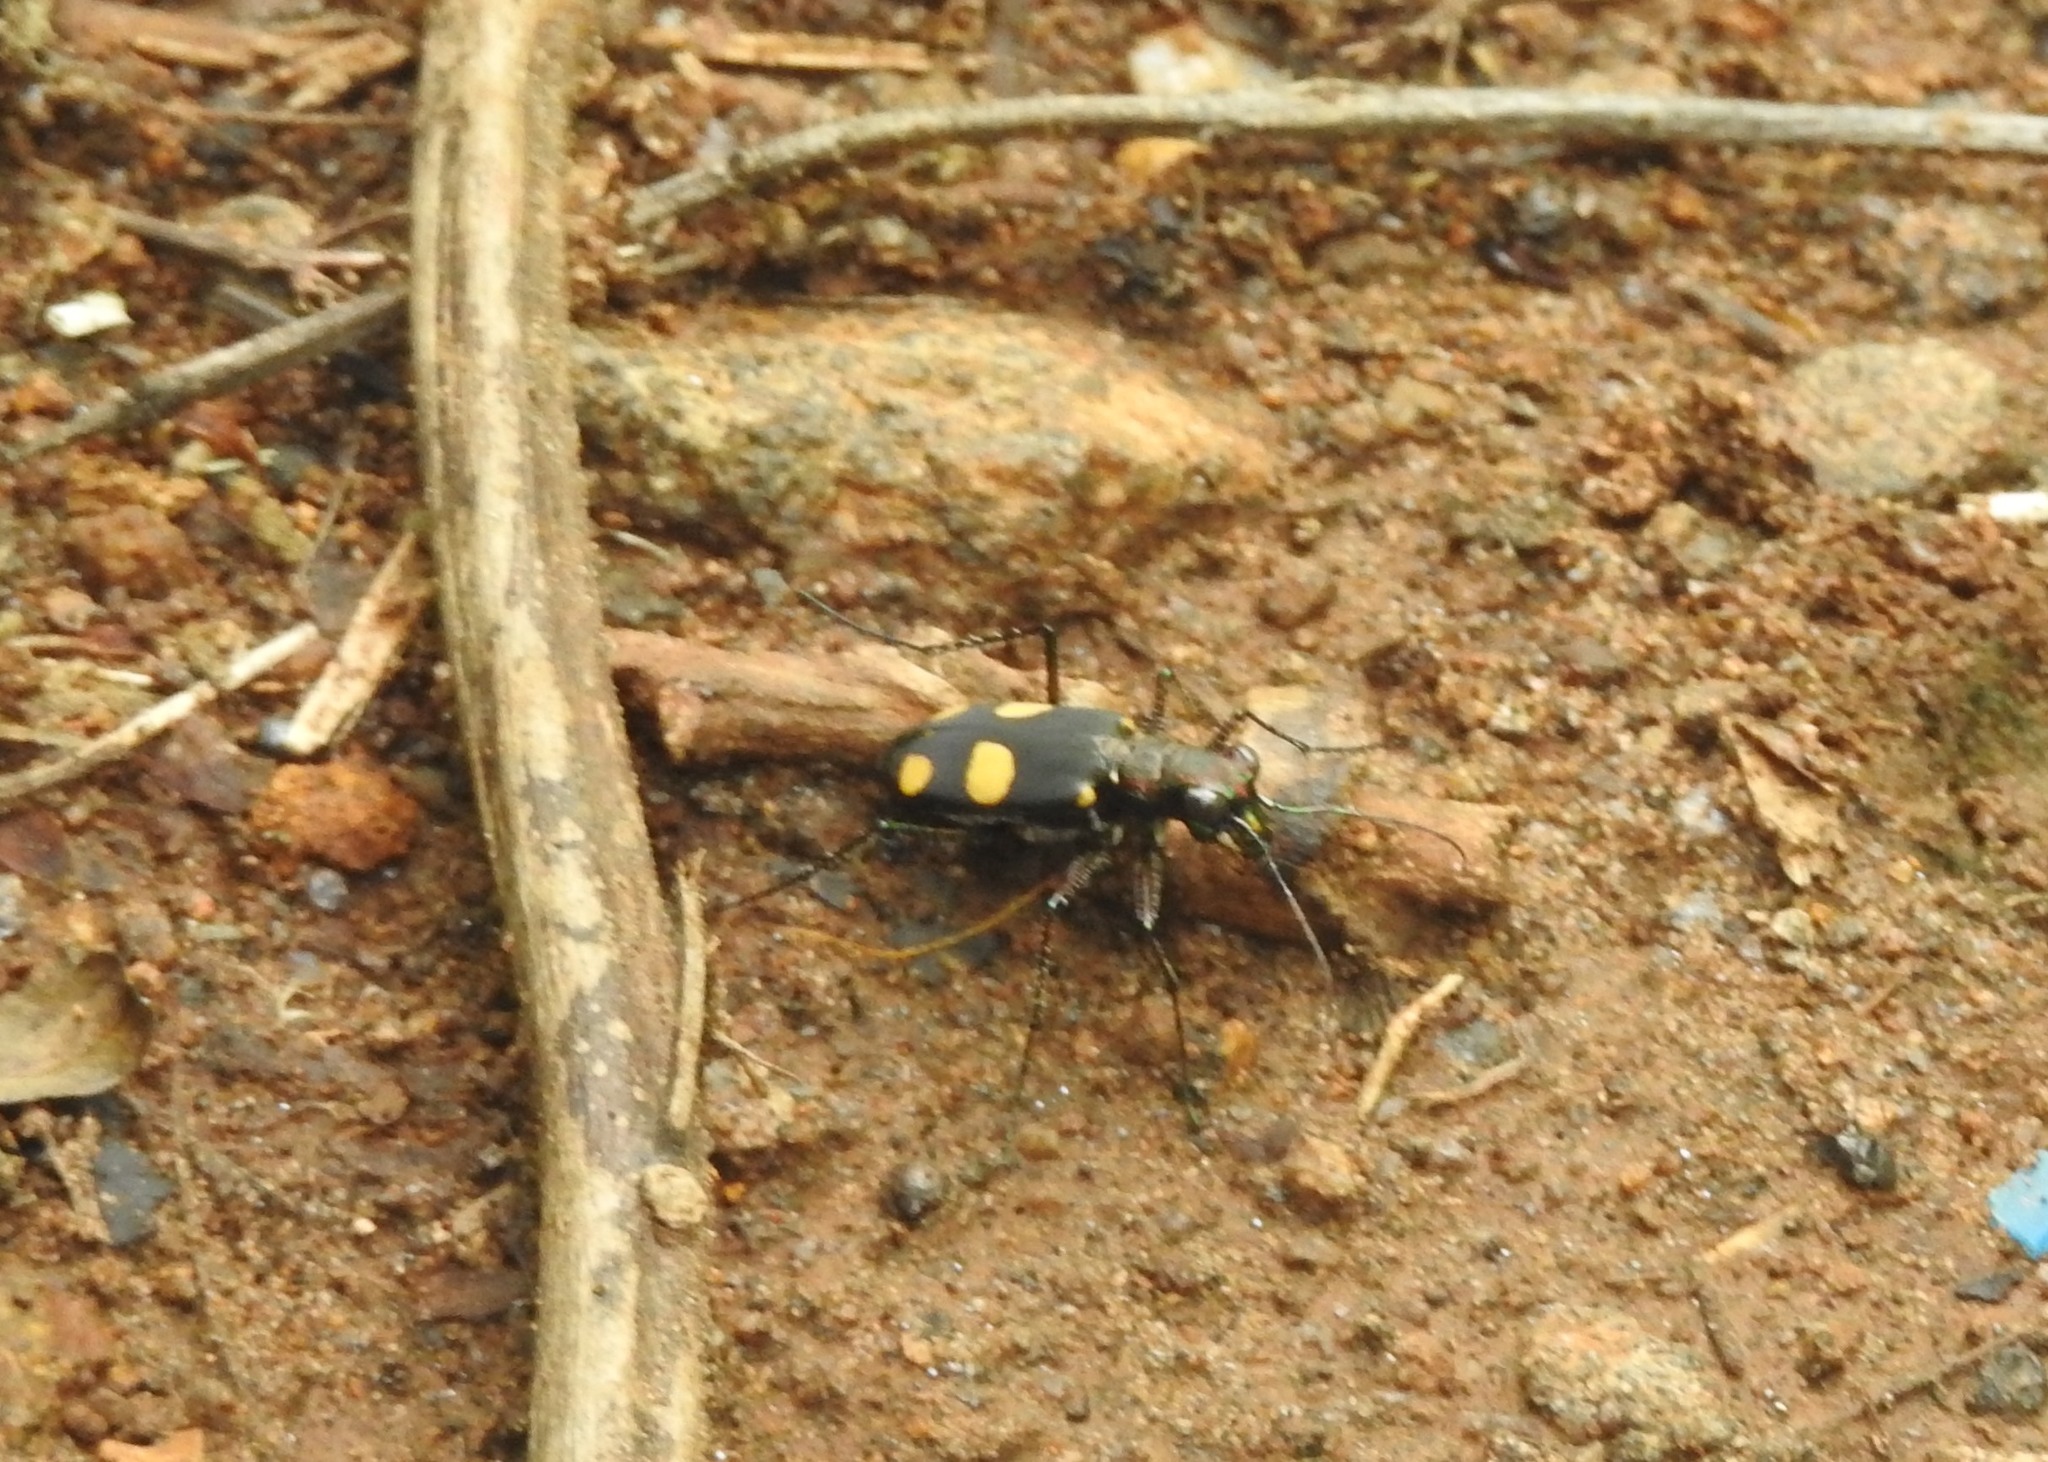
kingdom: Animalia
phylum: Arthropoda
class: Insecta
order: Coleoptera
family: Carabidae
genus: Cicindela
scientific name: Cicindela bicolor
